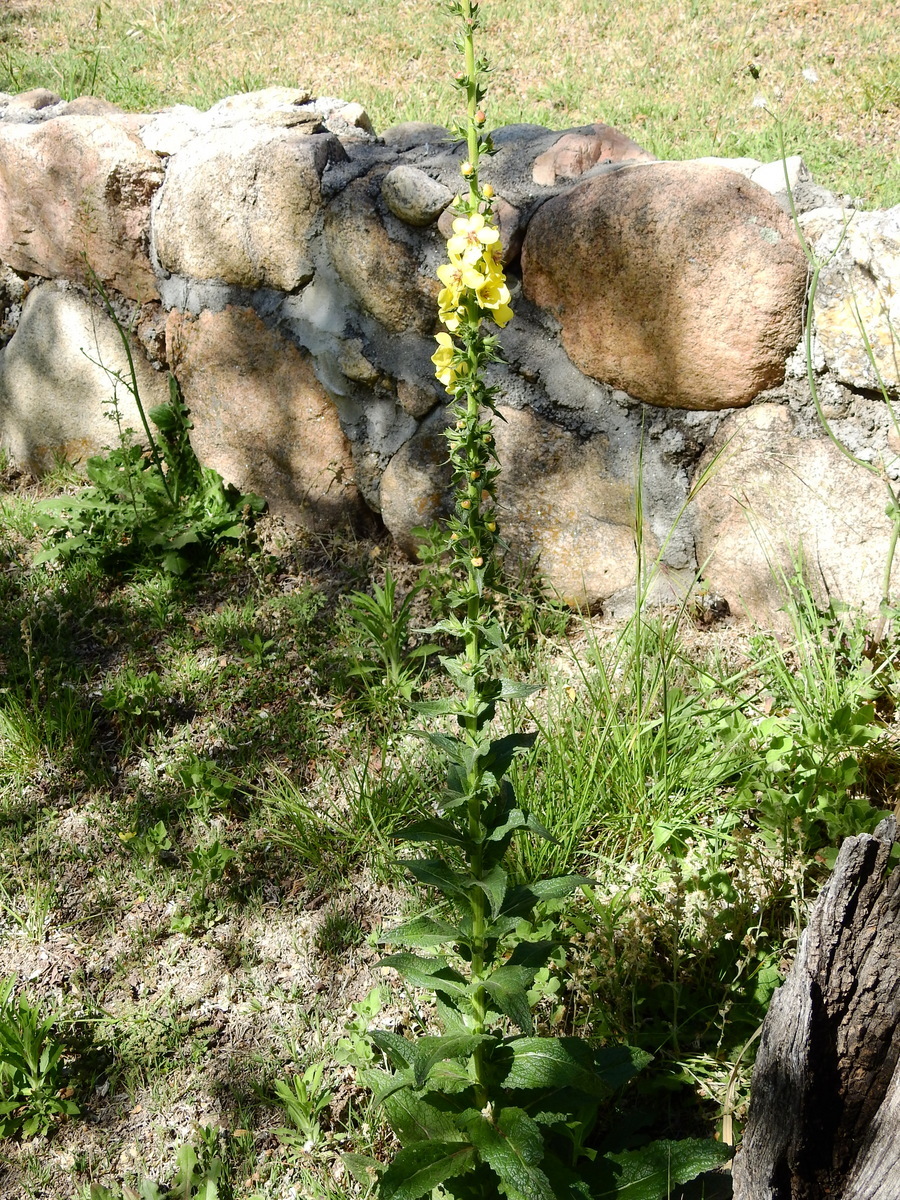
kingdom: Plantae
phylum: Tracheophyta
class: Magnoliopsida
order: Lamiales
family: Scrophulariaceae
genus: Verbascum
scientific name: Verbascum virgatum
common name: Twiggy mullein
